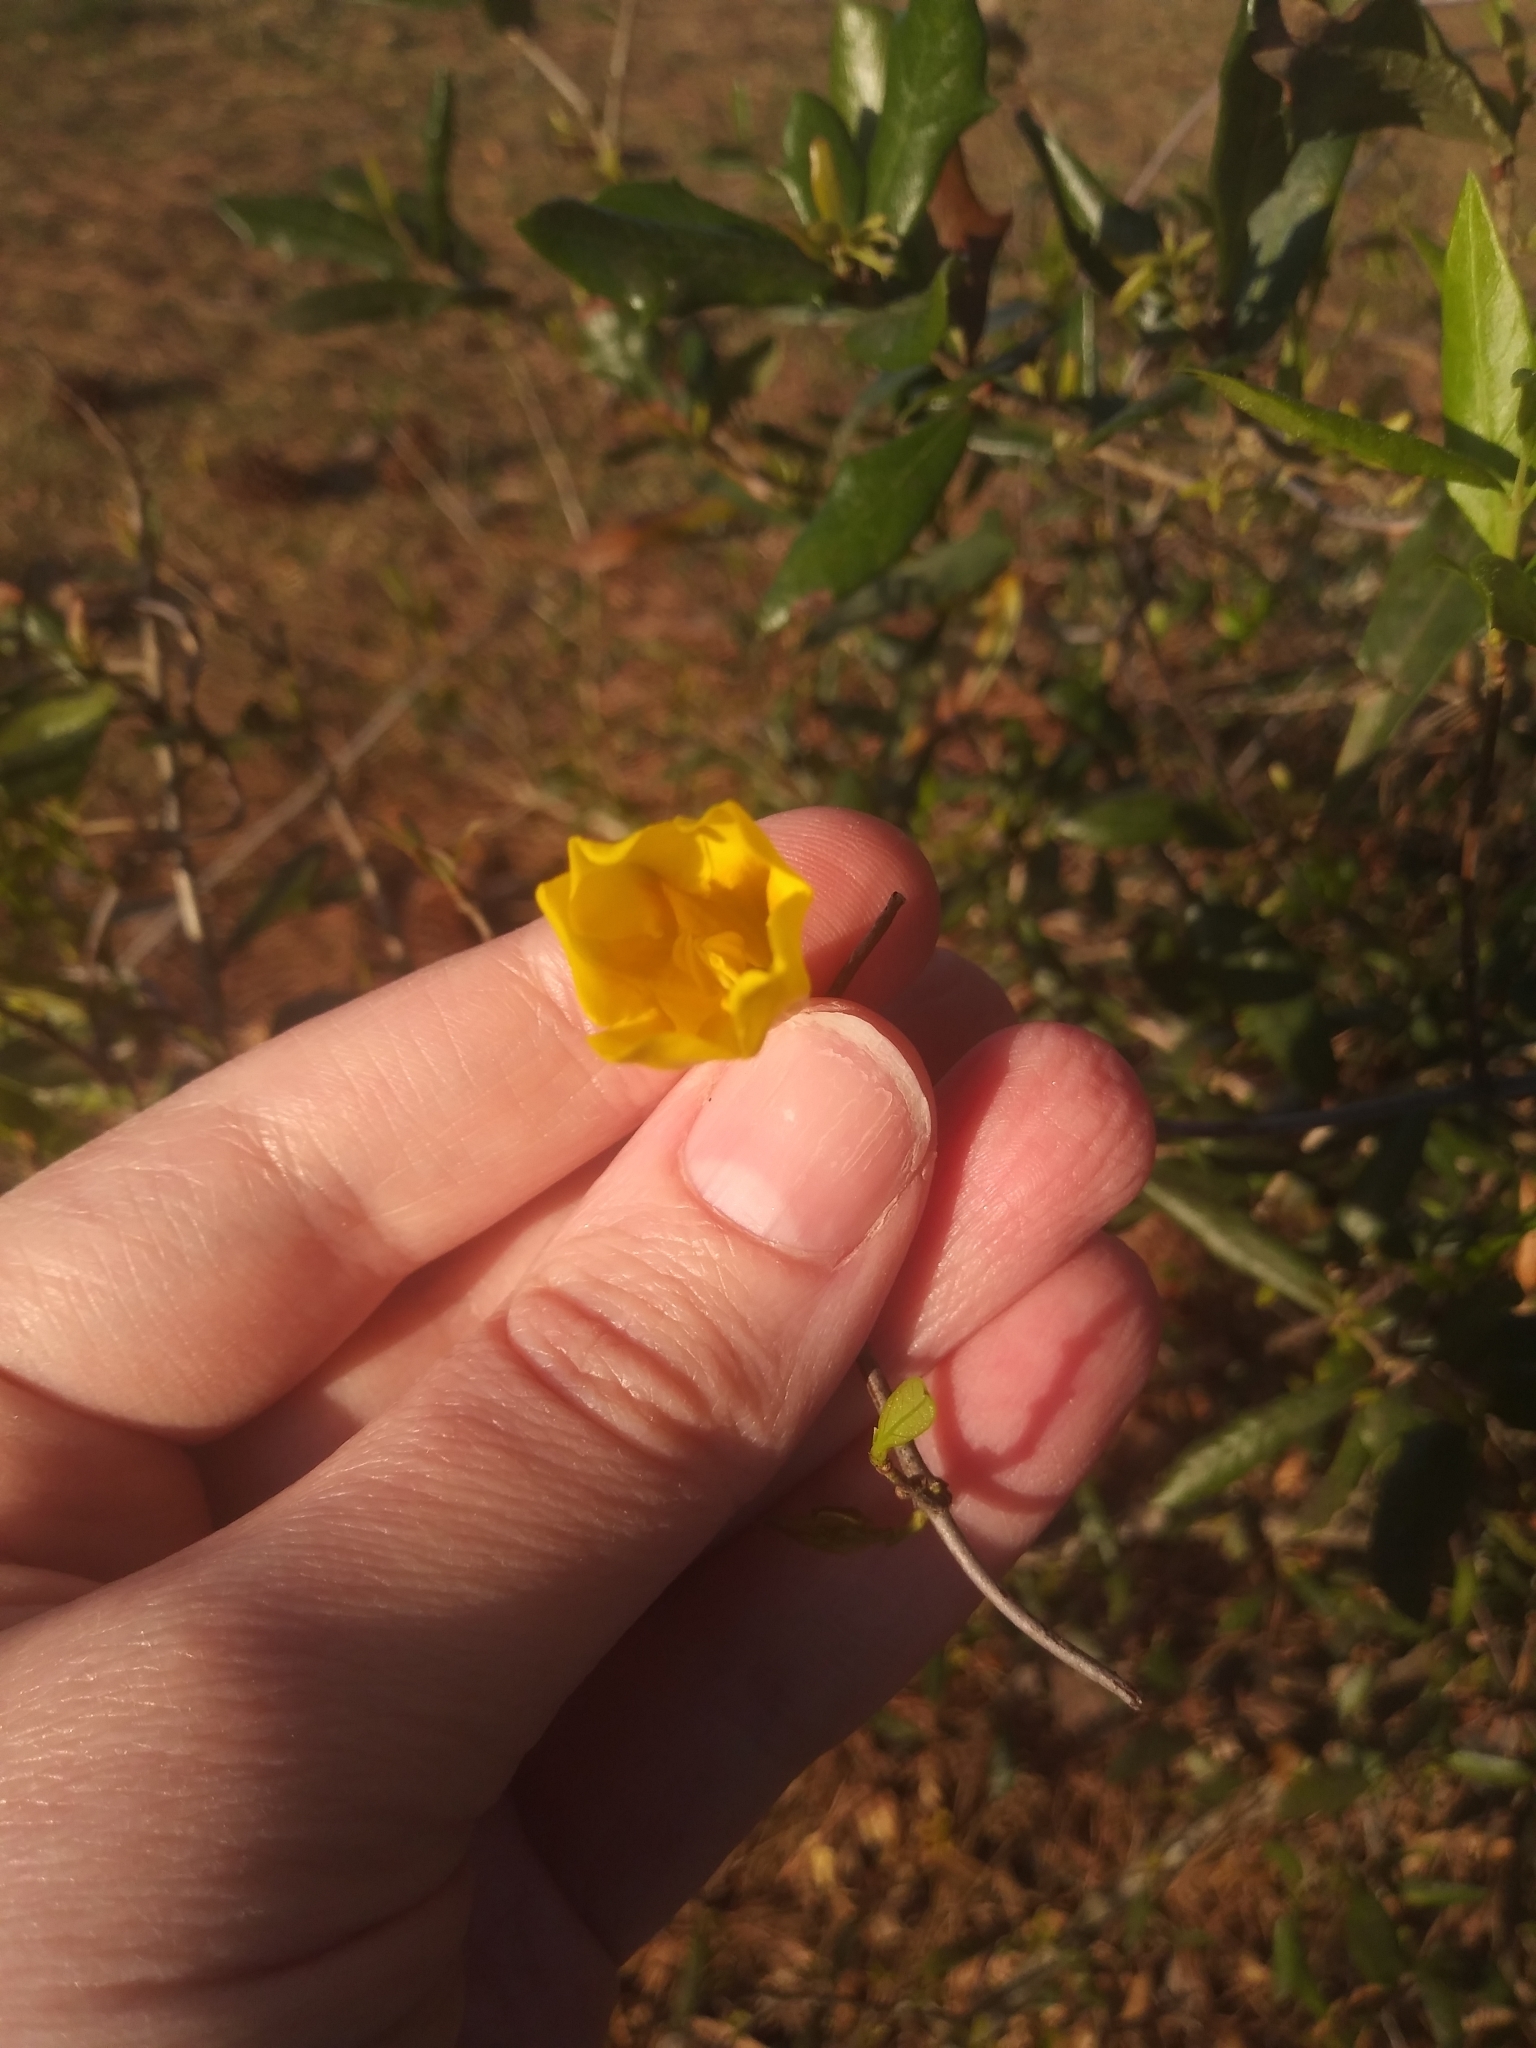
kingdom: Plantae
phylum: Tracheophyta
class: Magnoliopsida
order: Gentianales
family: Gelsemiaceae
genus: Gelsemium
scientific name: Gelsemium sempervirens
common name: Carolina-jasmine
